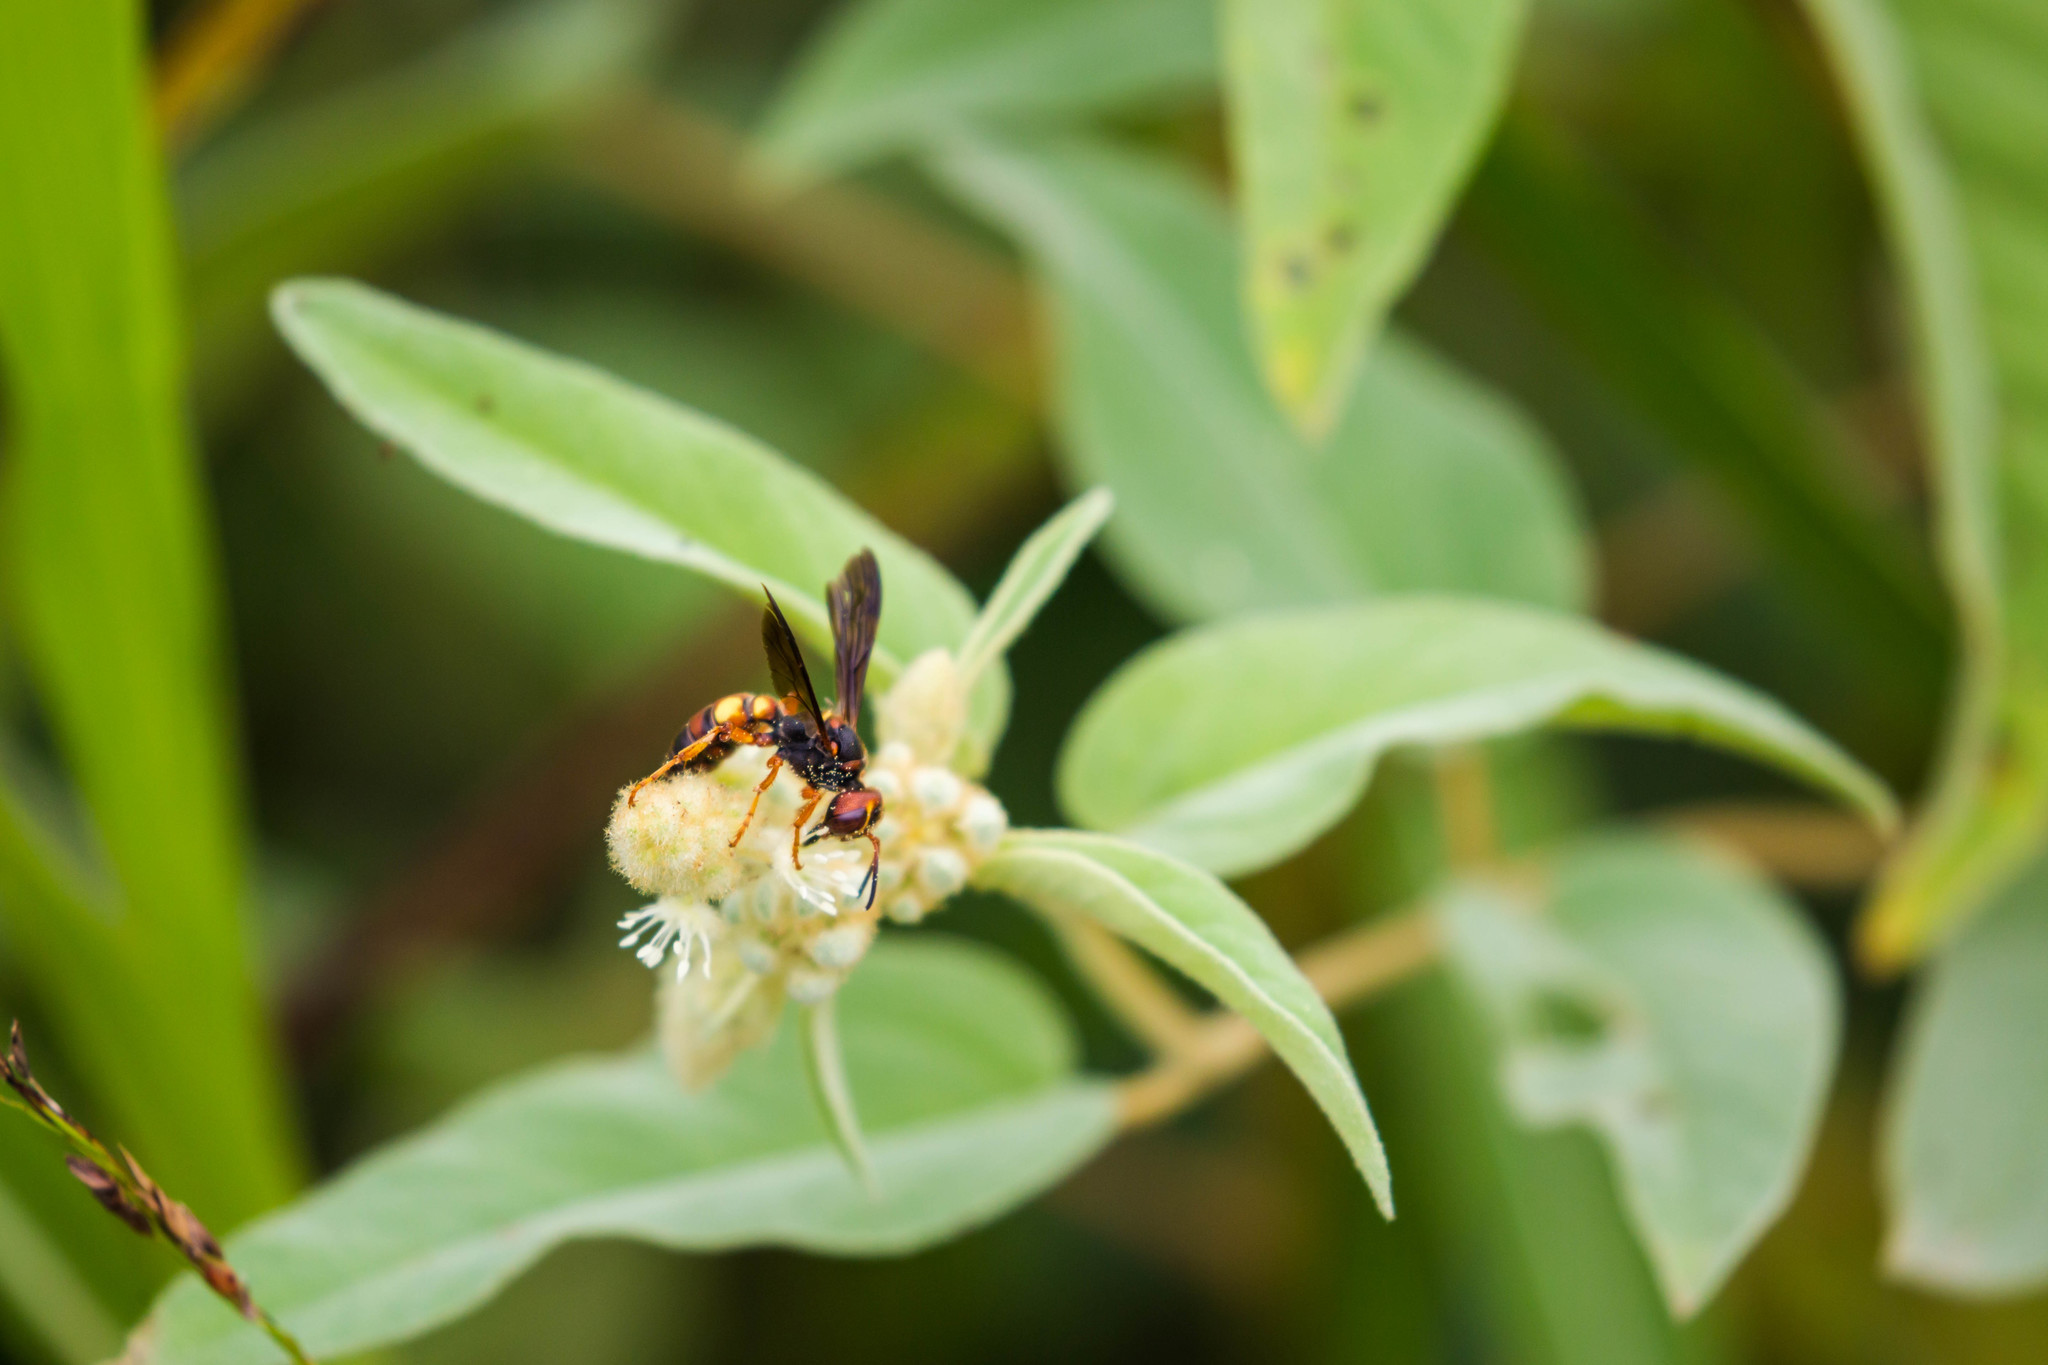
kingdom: Animalia
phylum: Arthropoda
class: Insecta
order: Hymenoptera
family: Crabronidae
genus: Cerceris
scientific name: Cerceris bicornuta
